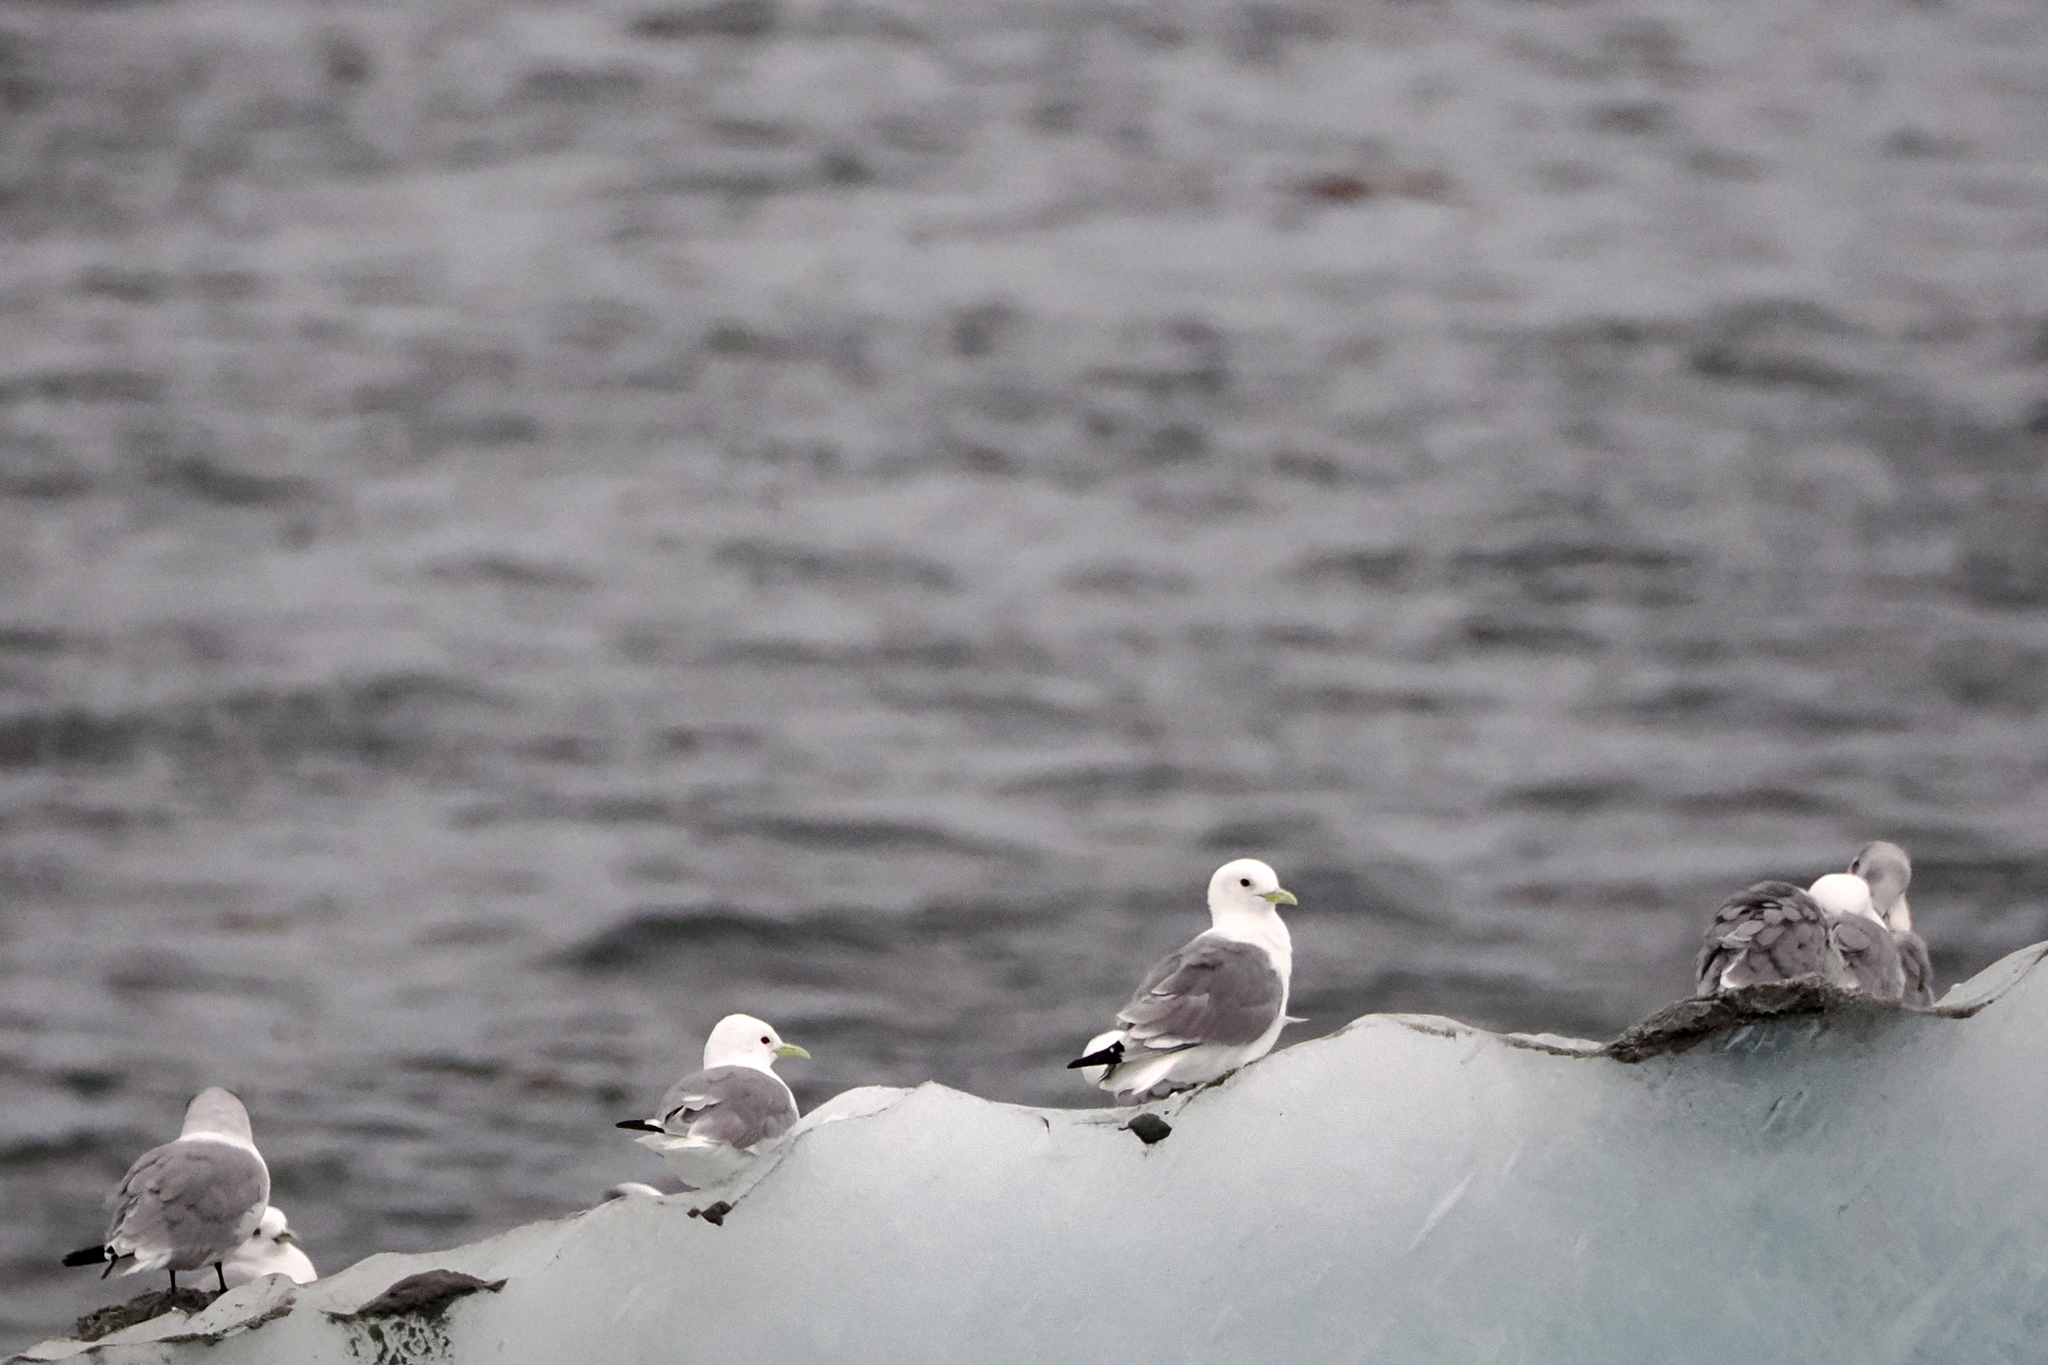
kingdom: Animalia
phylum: Chordata
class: Aves
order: Charadriiformes
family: Laridae
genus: Rissa
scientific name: Rissa tridactyla
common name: Black-legged kittiwake
